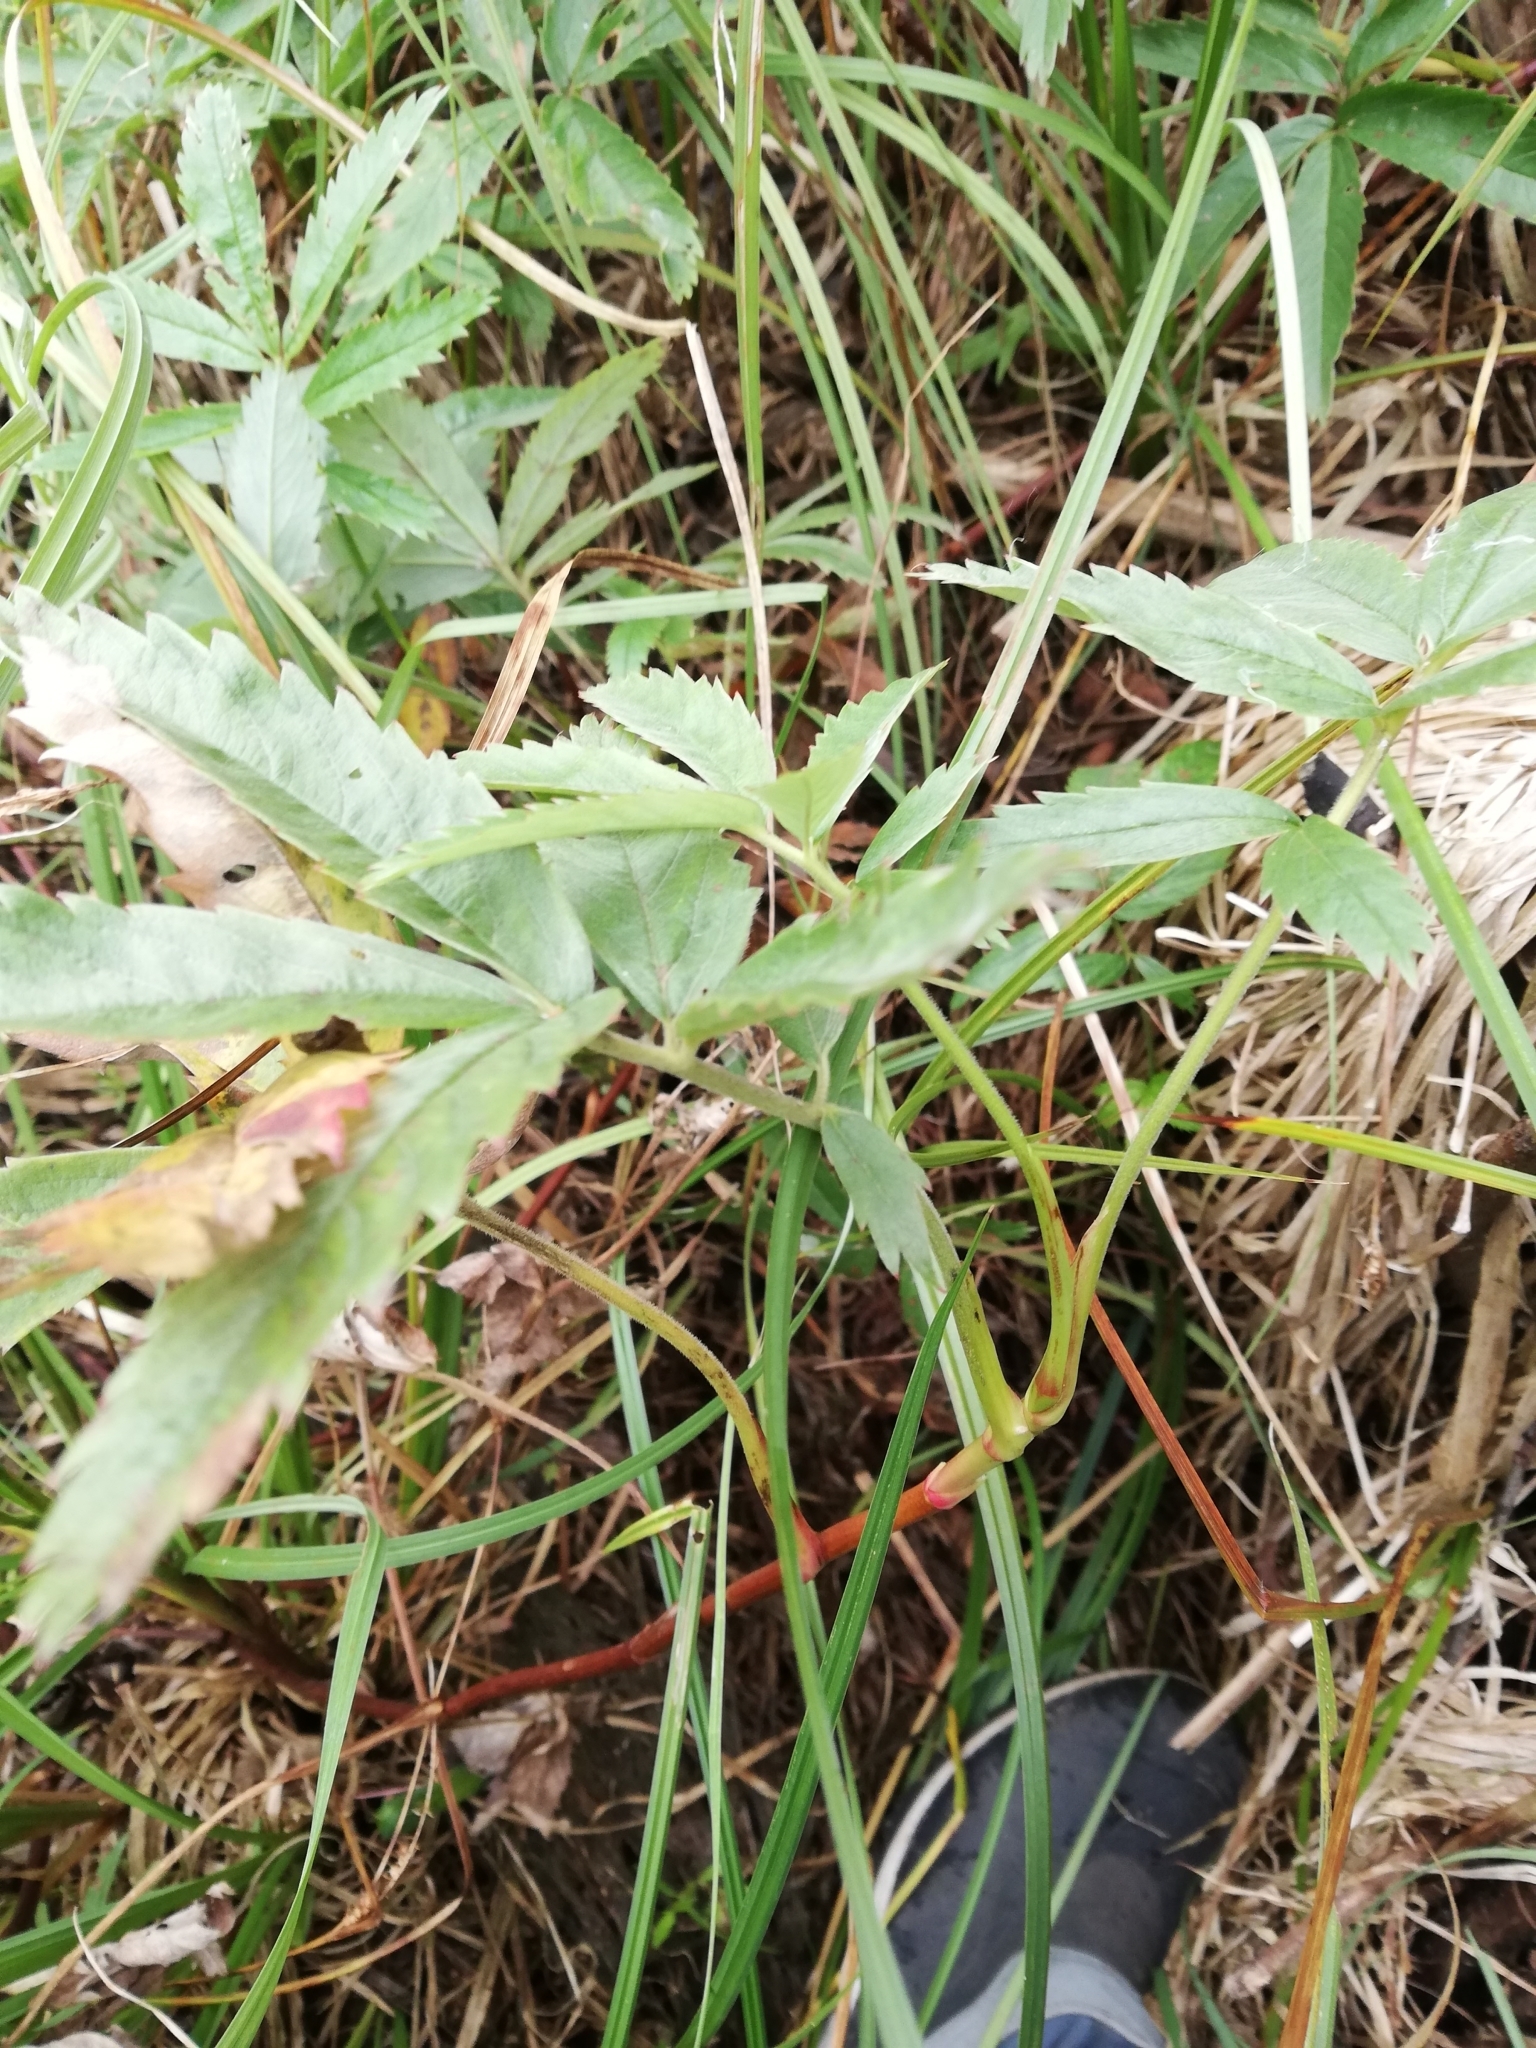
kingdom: Plantae
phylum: Tracheophyta
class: Magnoliopsida
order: Rosales
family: Rosaceae
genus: Comarum
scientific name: Comarum palustre
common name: Marsh cinquefoil
